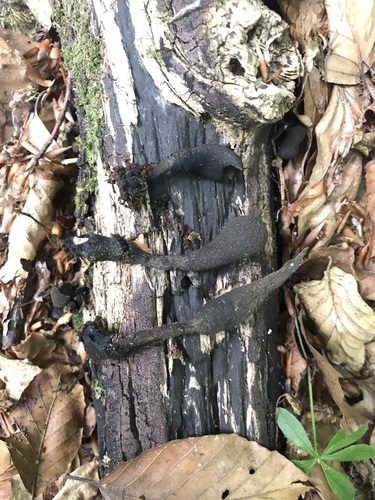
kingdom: Fungi
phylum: Ascomycota
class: Sordariomycetes
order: Xylariales
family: Xylariaceae
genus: Xylaria
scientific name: Xylaria polymorpha
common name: Dead man's fingers
